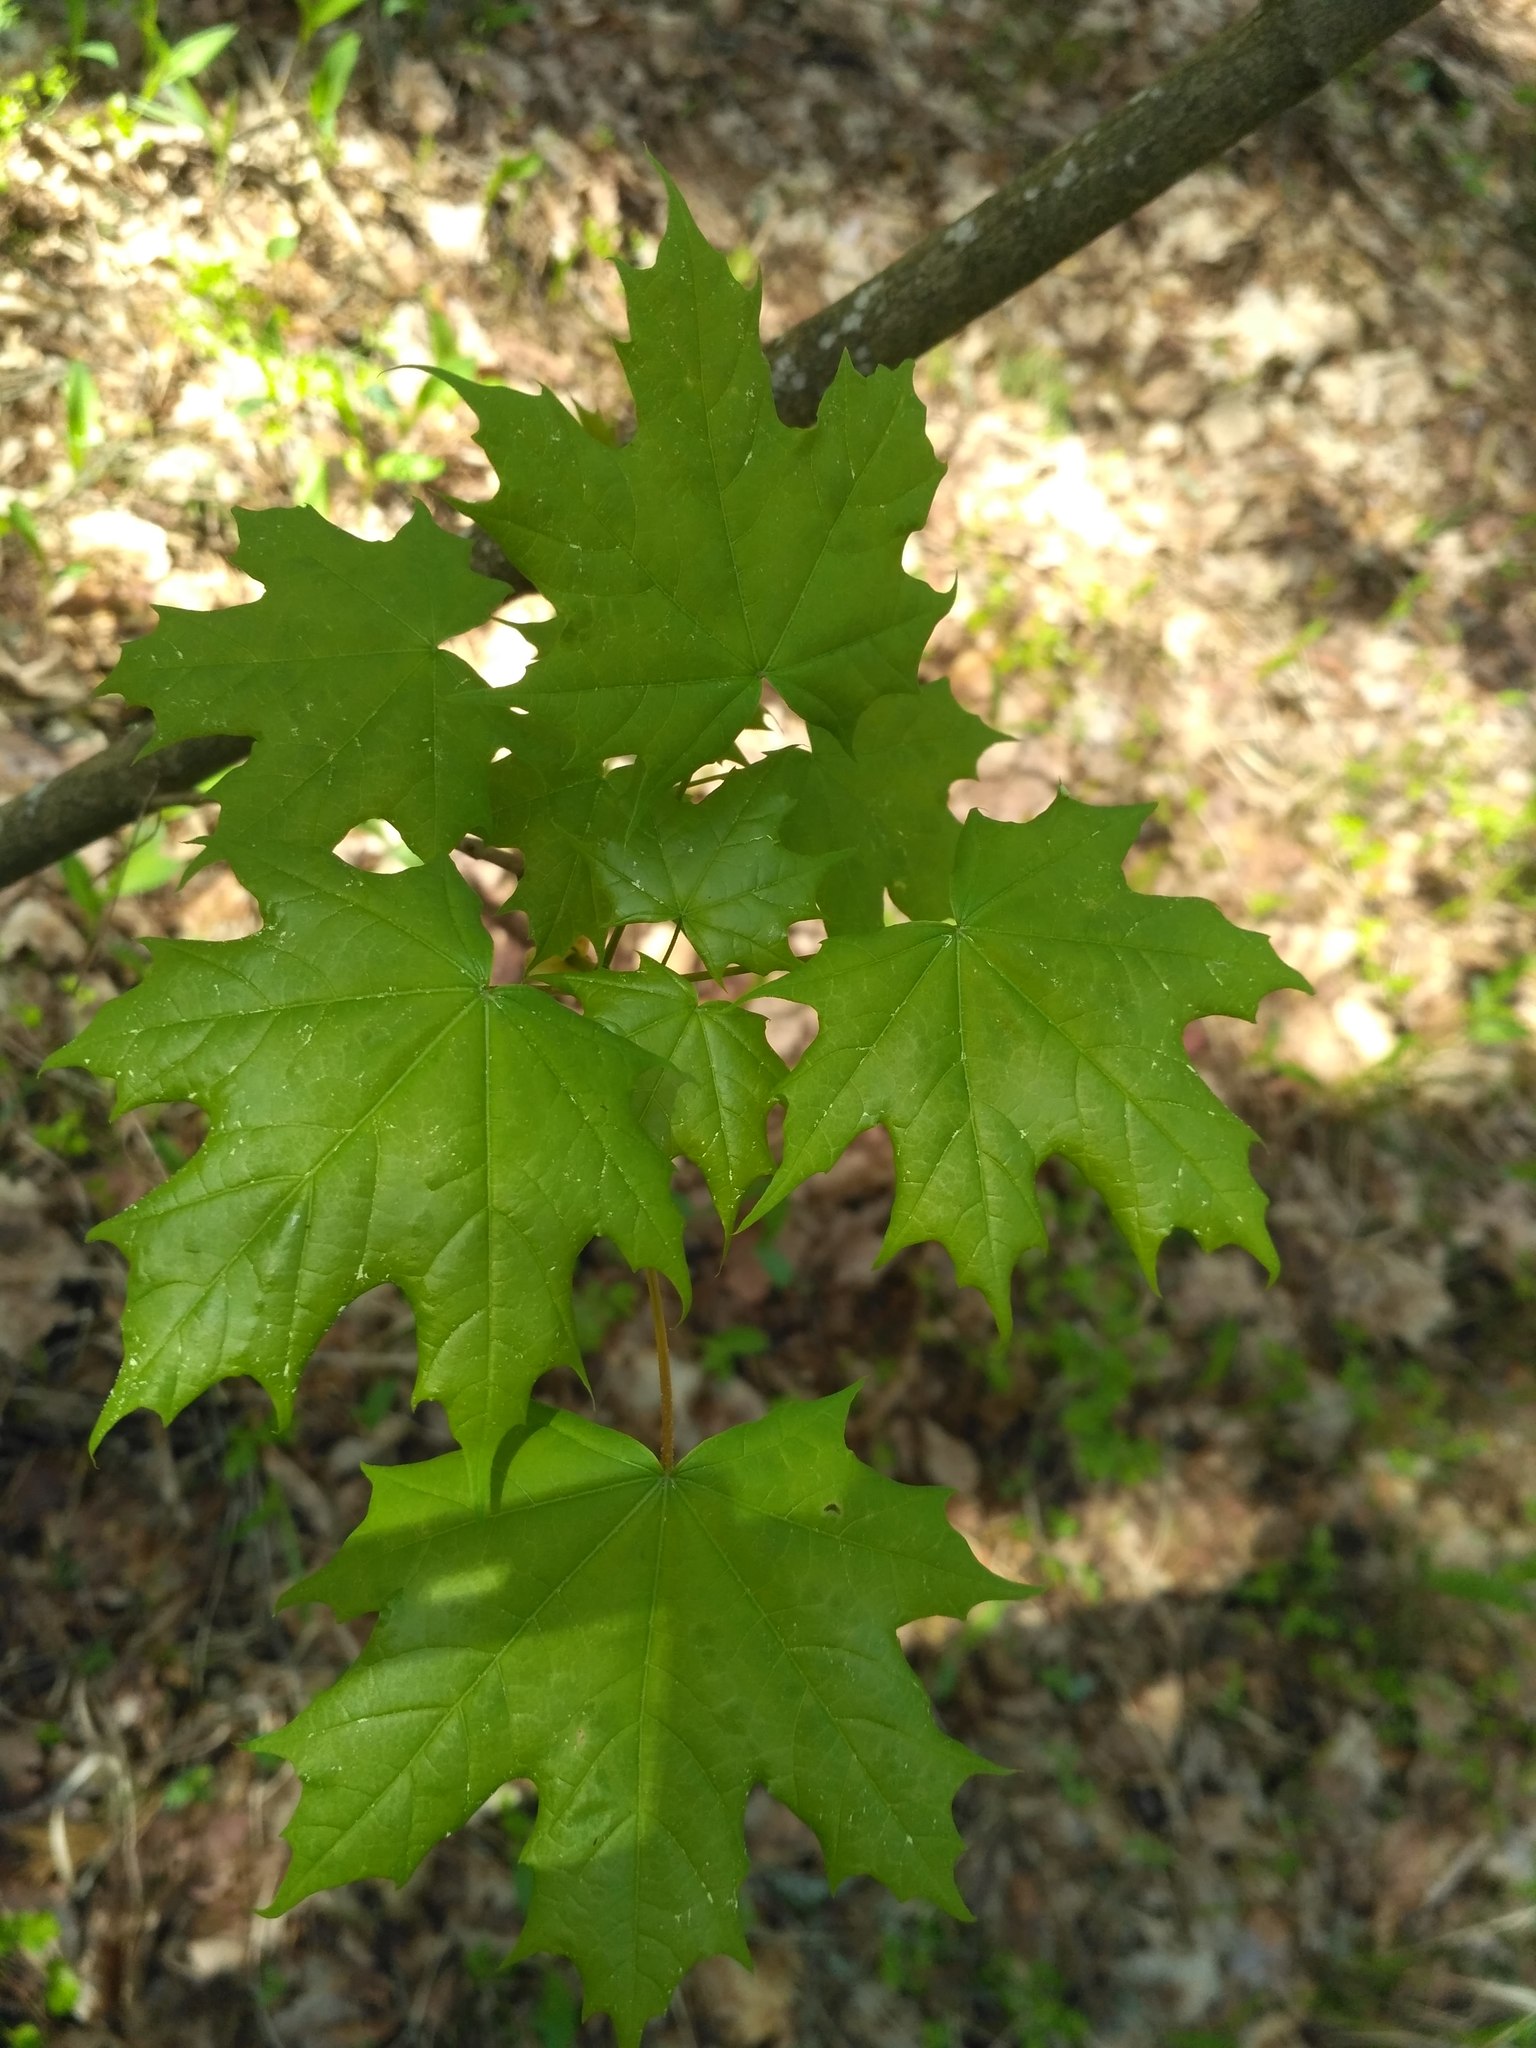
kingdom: Plantae
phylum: Tracheophyta
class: Magnoliopsida
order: Sapindales
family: Sapindaceae
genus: Acer
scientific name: Acer platanoides
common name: Norway maple
